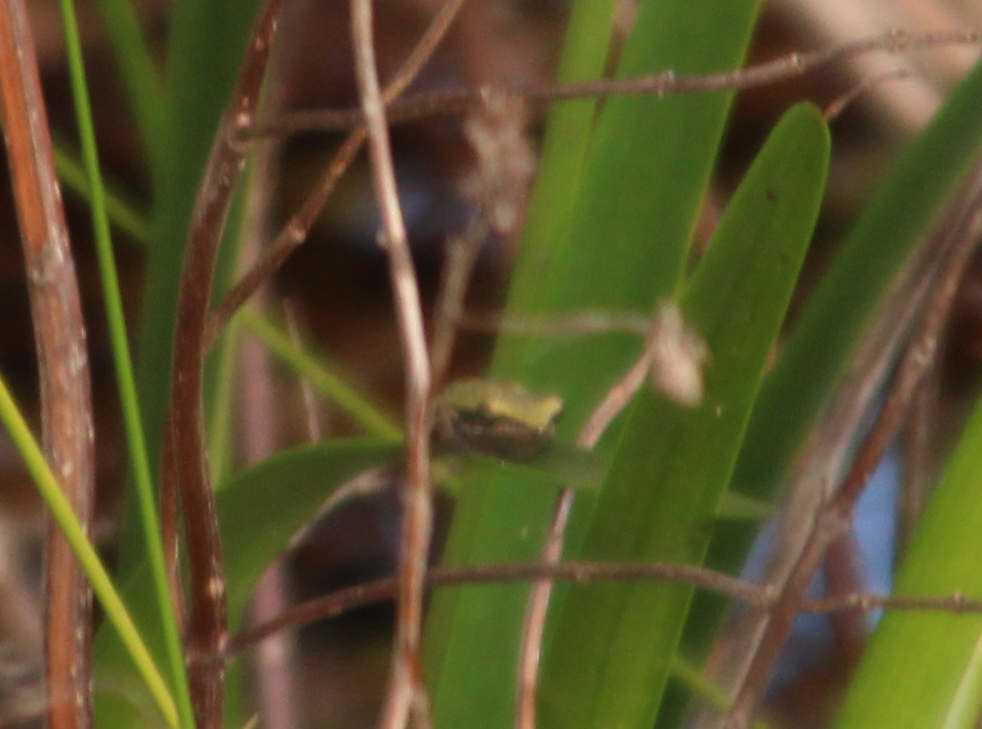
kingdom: Animalia
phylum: Chordata
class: Amphibia
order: Anura
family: Pelodryadidae
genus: Litoria
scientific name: Litoria adelaidensis
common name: Slender tree frog
